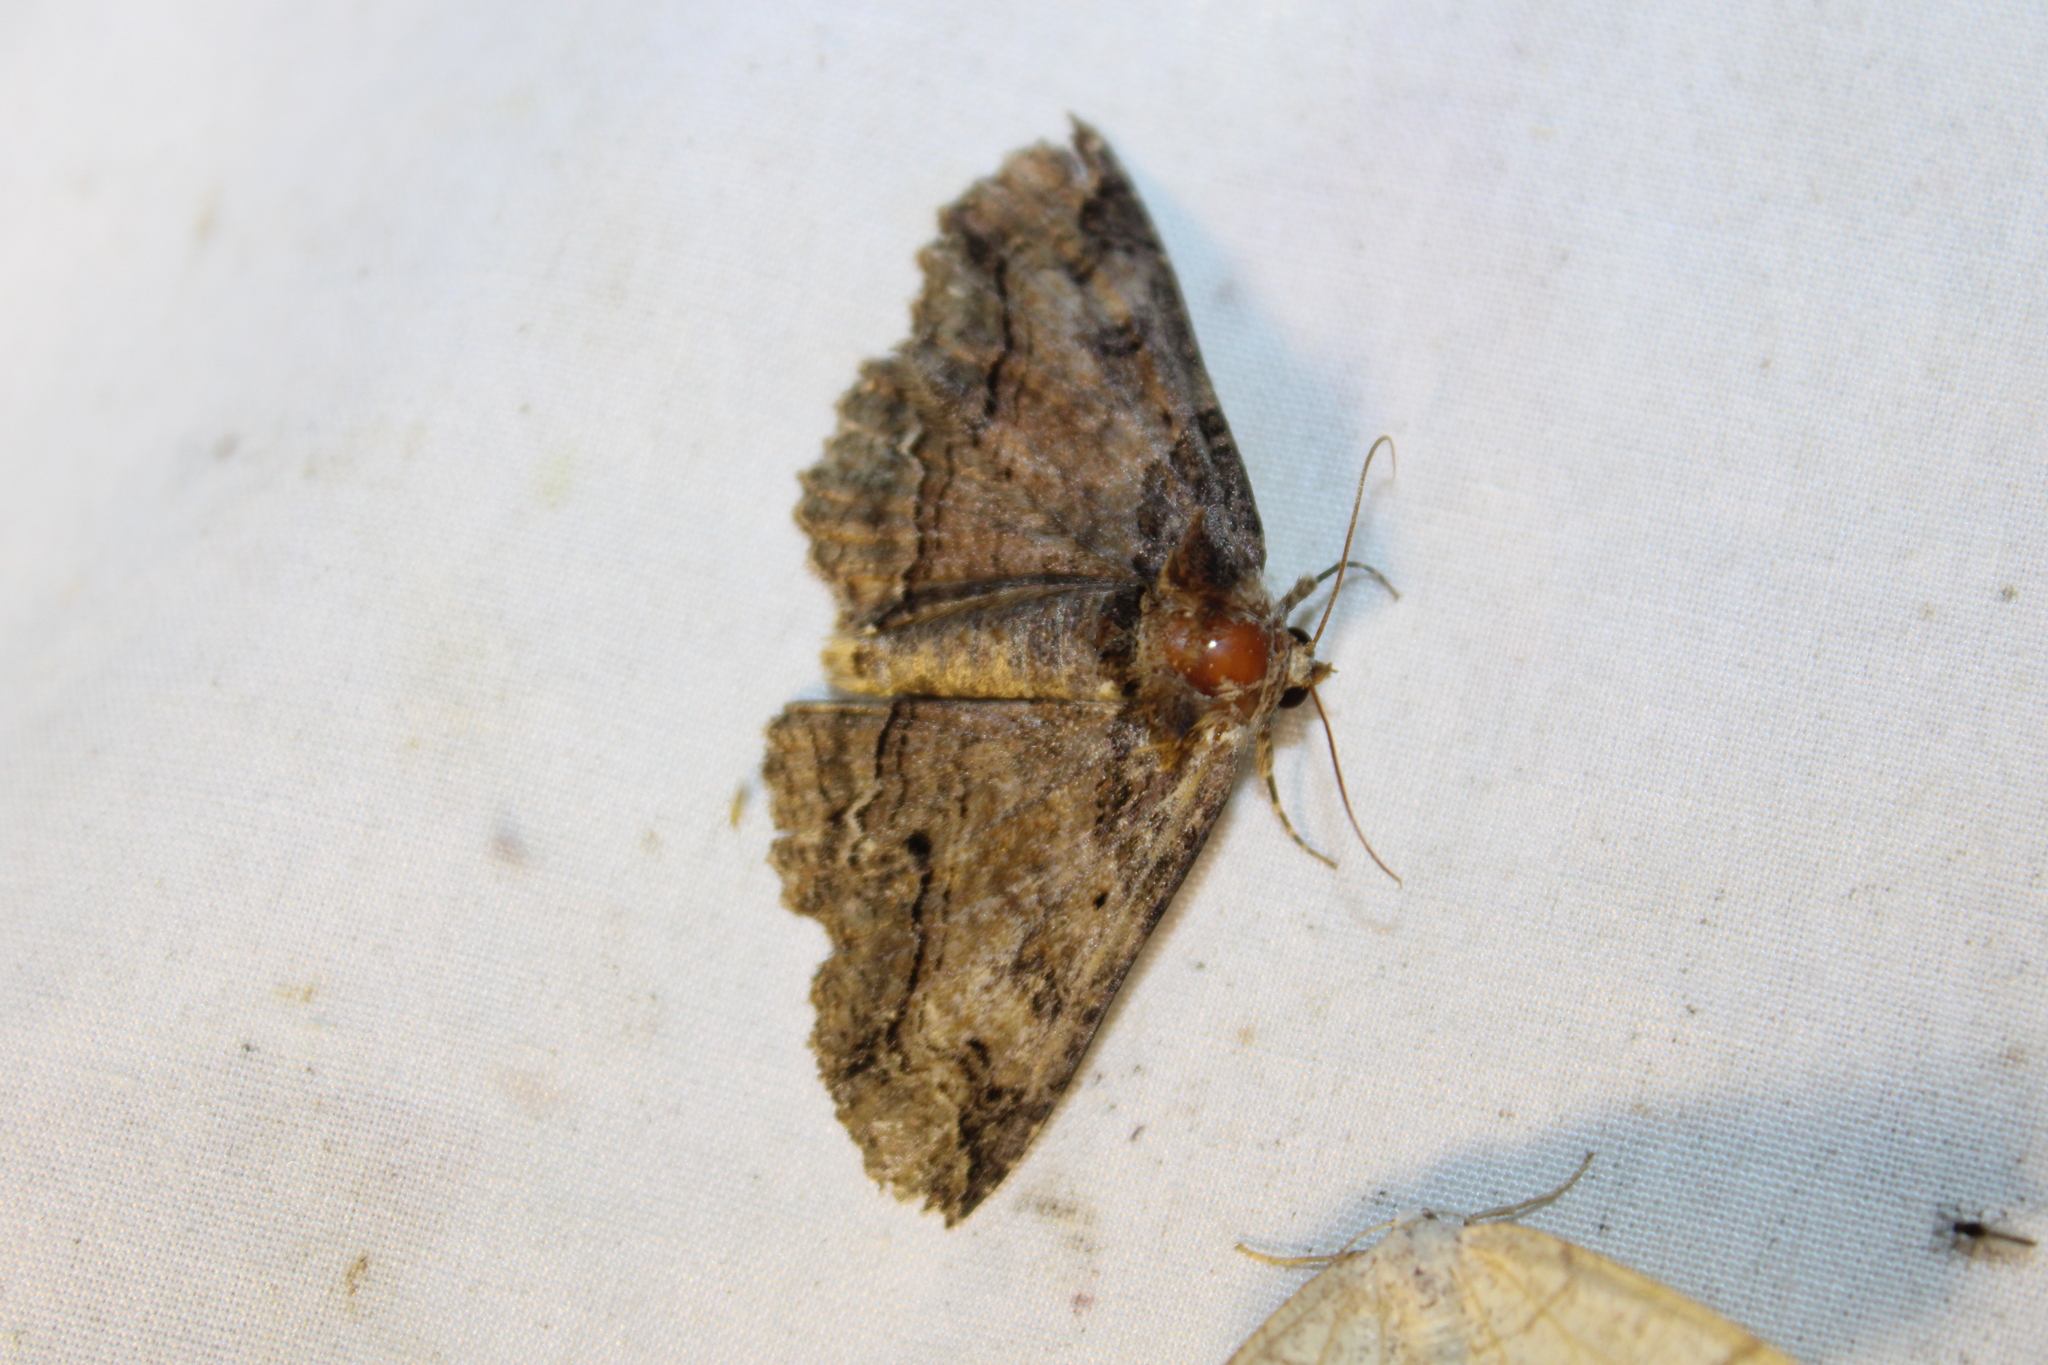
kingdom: Animalia
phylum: Arthropoda
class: Insecta
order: Lepidoptera
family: Erebidae
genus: Zale
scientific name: Zale galbanata
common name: Maple zale
